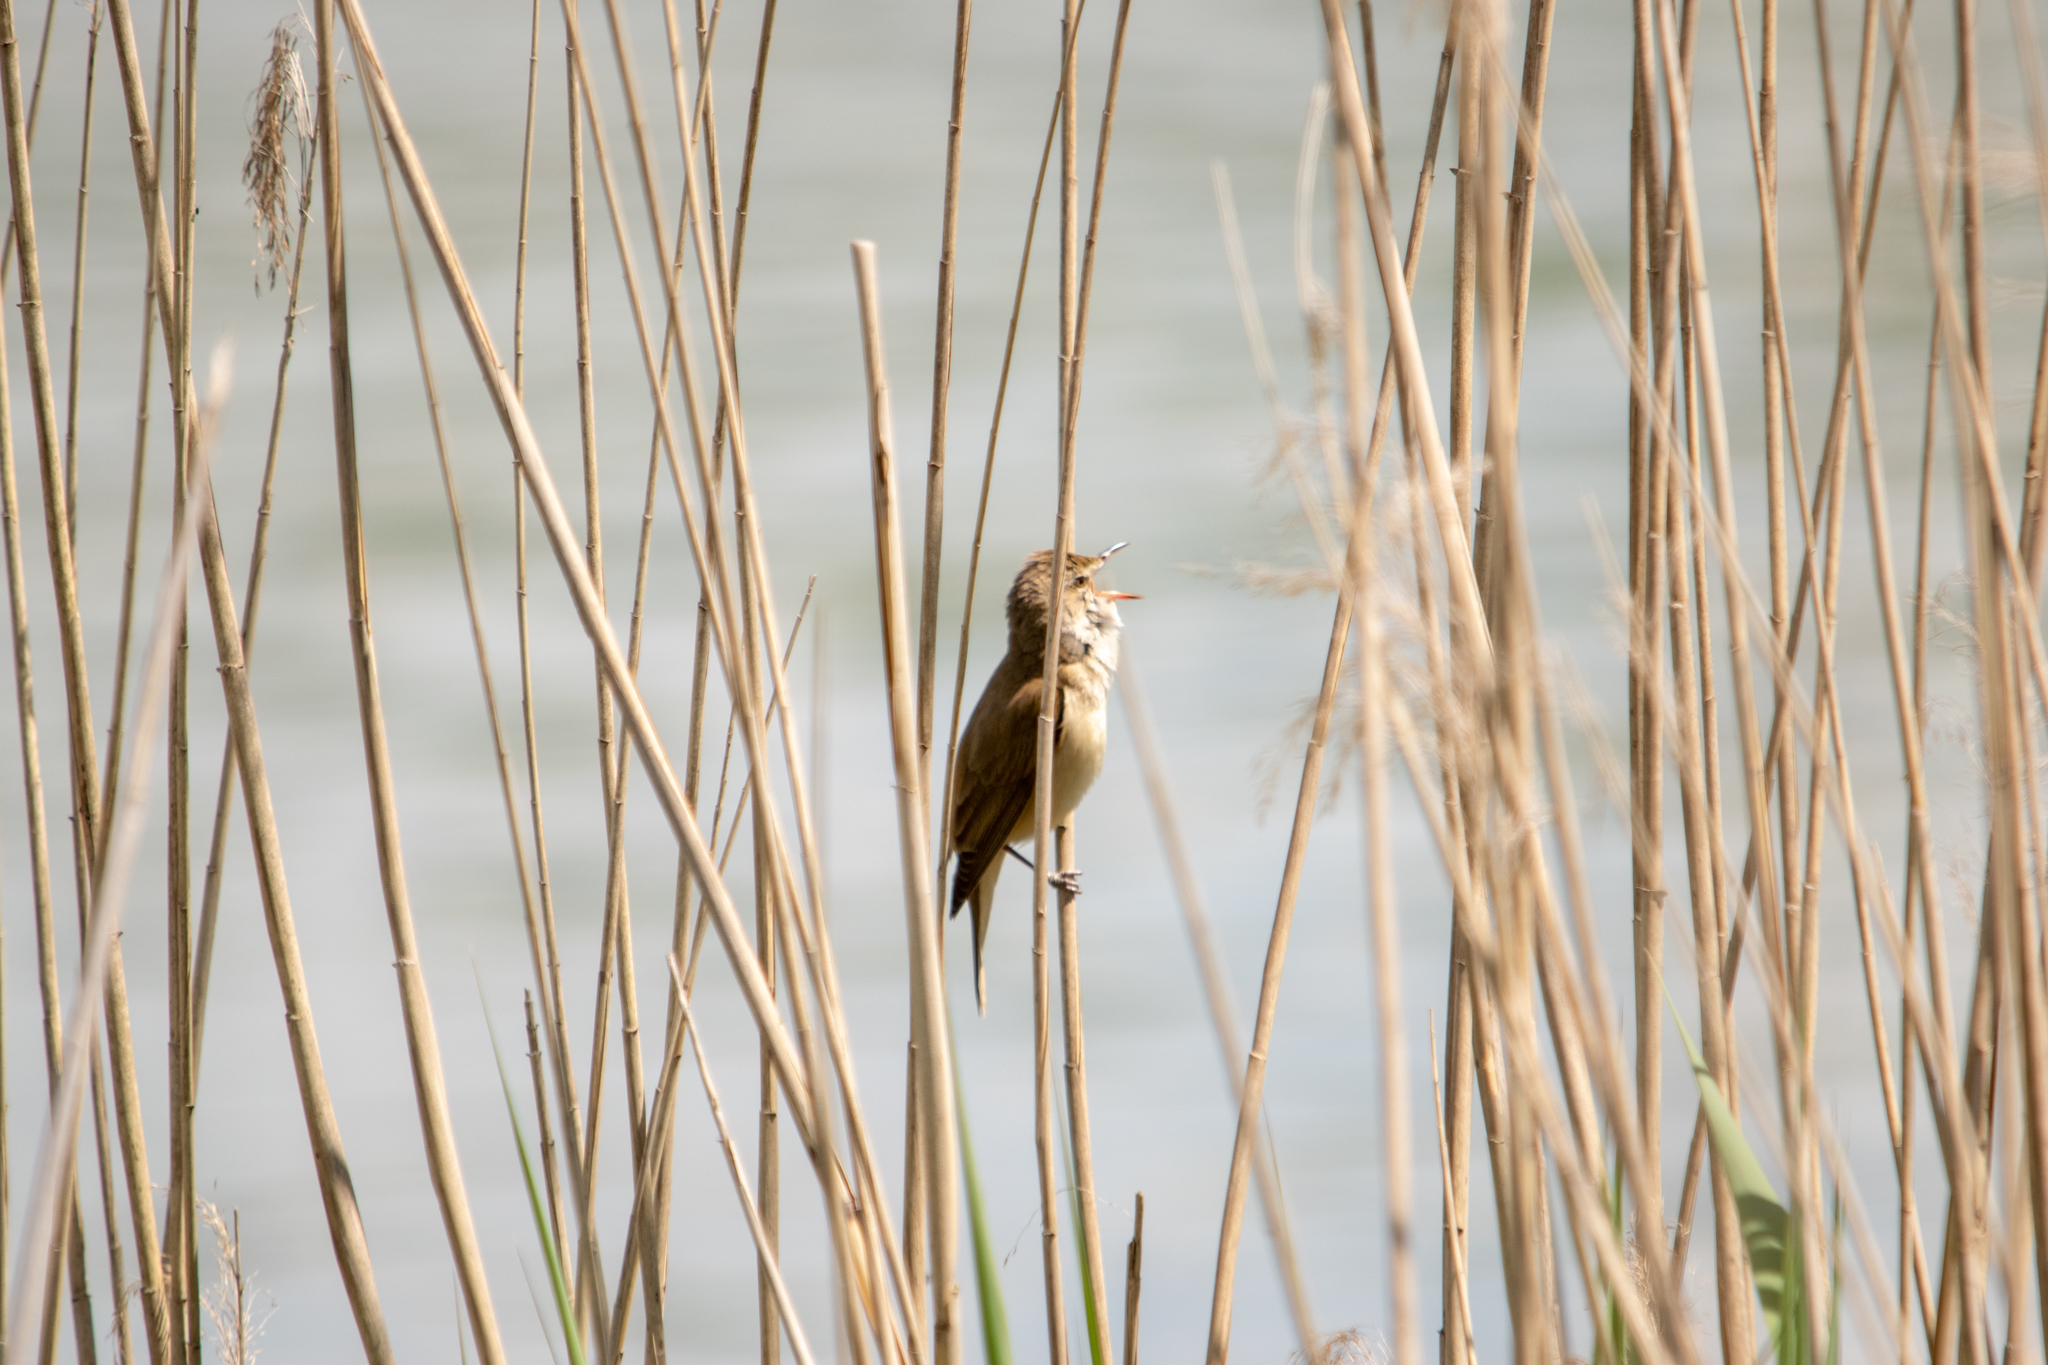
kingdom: Animalia
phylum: Chordata
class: Aves
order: Passeriformes
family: Acrocephalidae
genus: Acrocephalus
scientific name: Acrocephalus arundinaceus
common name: Great reed warbler
